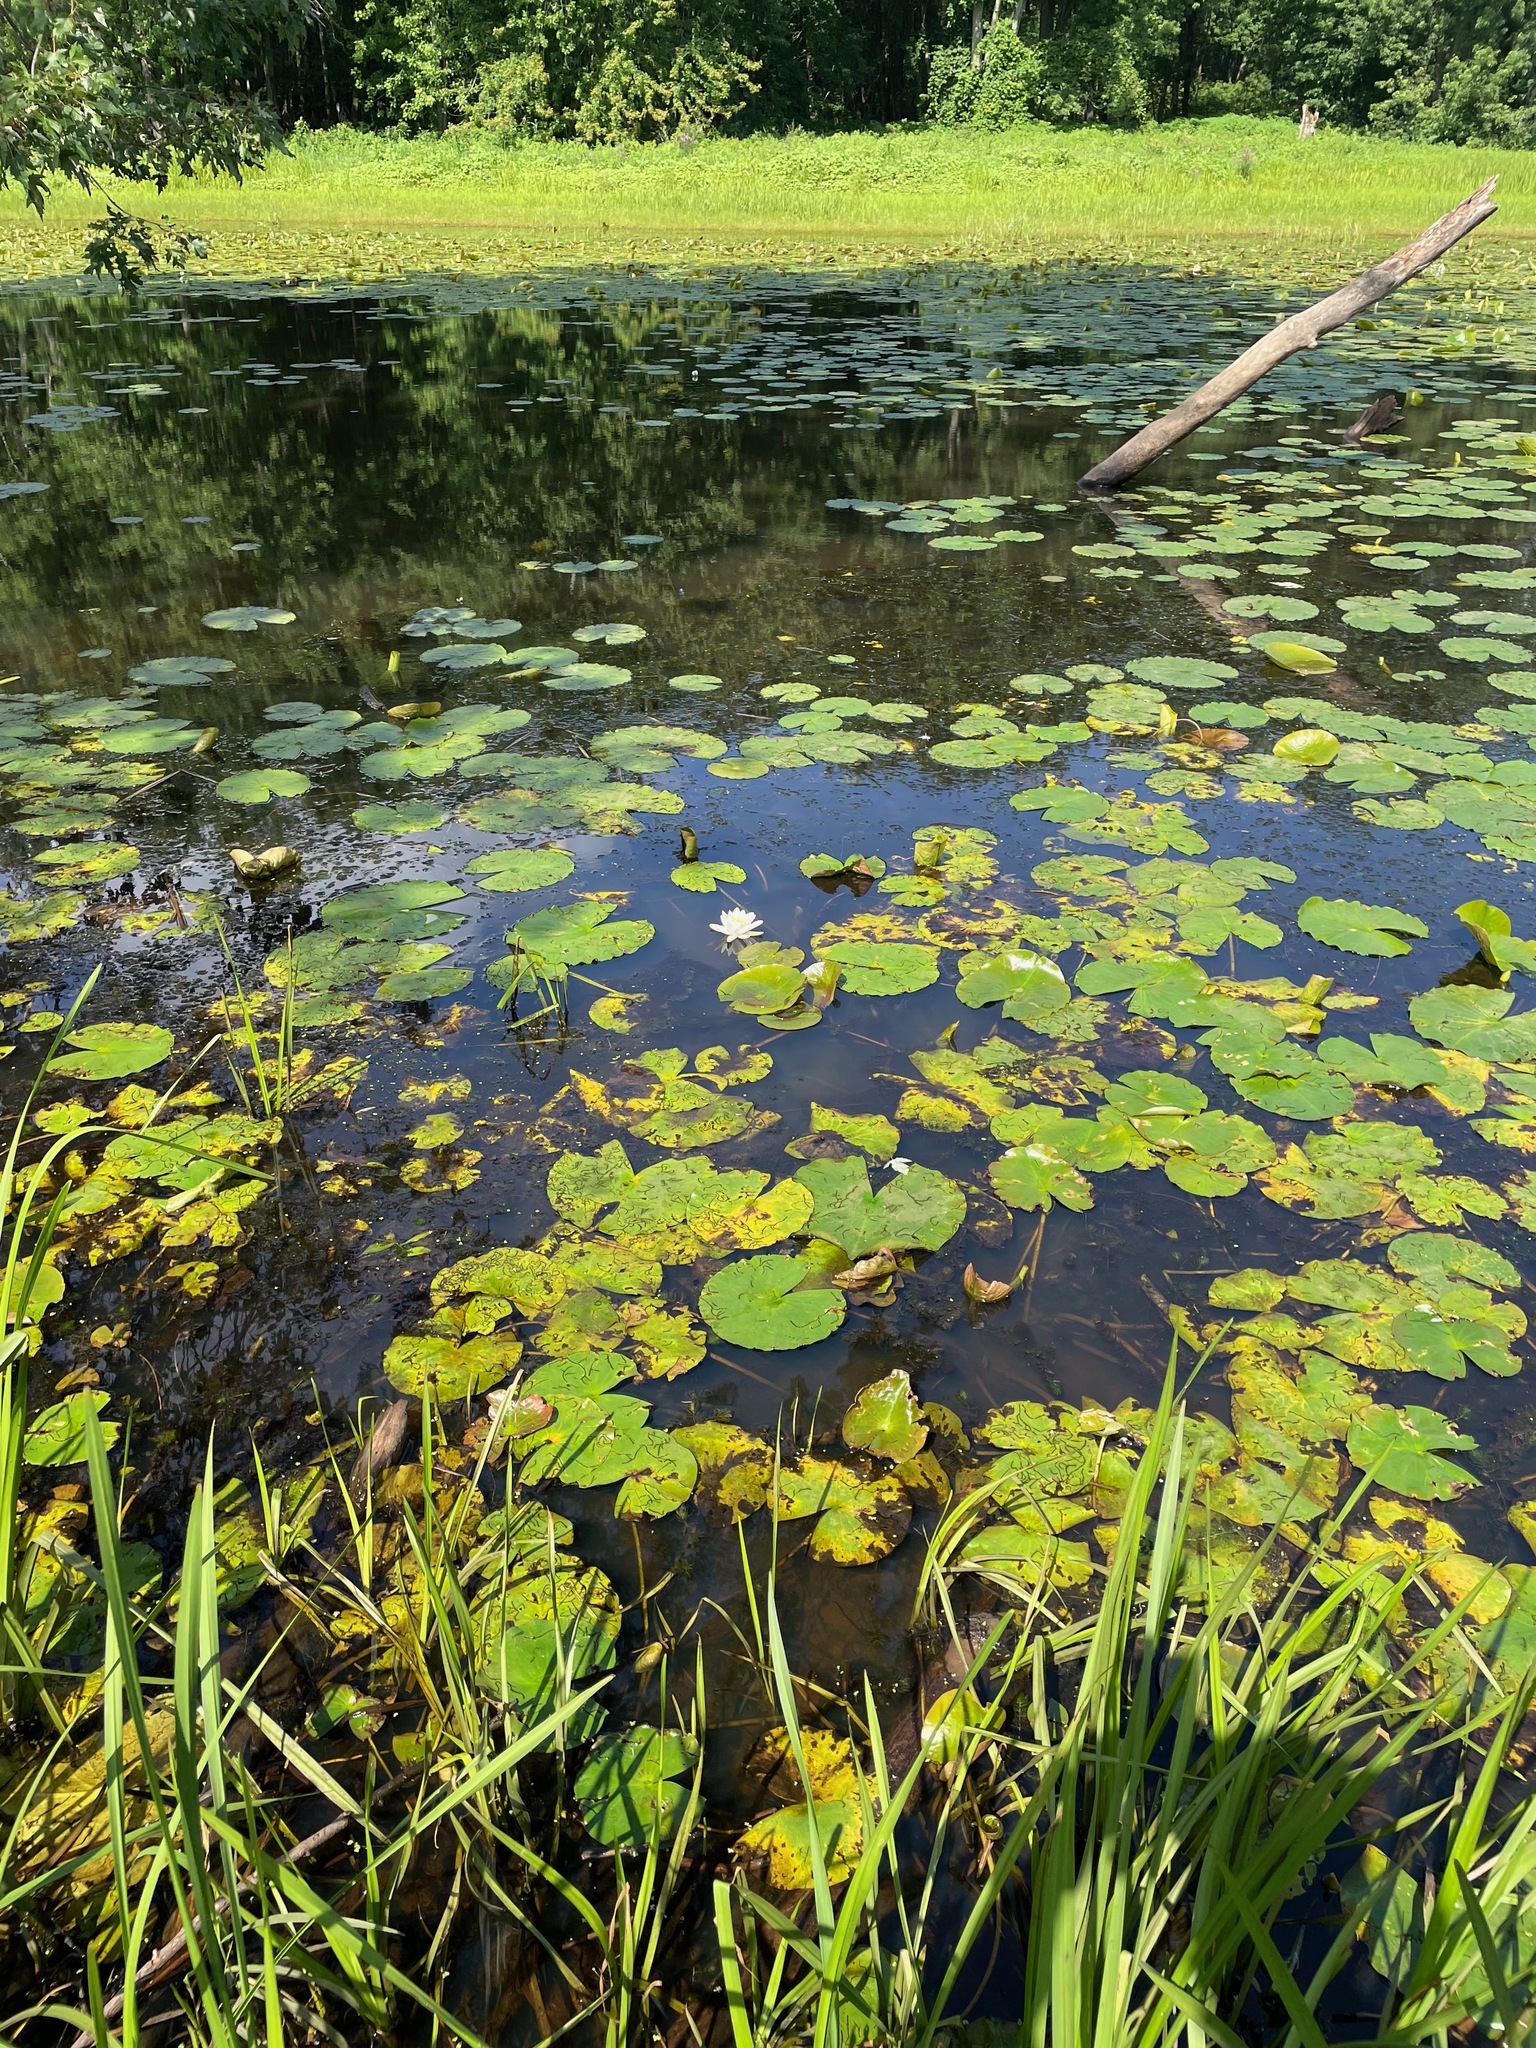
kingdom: Plantae
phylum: Tracheophyta
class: Magnoliopsida
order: Nymphaeales
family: Nymphaeaceae
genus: Nymphaea
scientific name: Nymphaea odorata
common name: Fragrant water-lily
